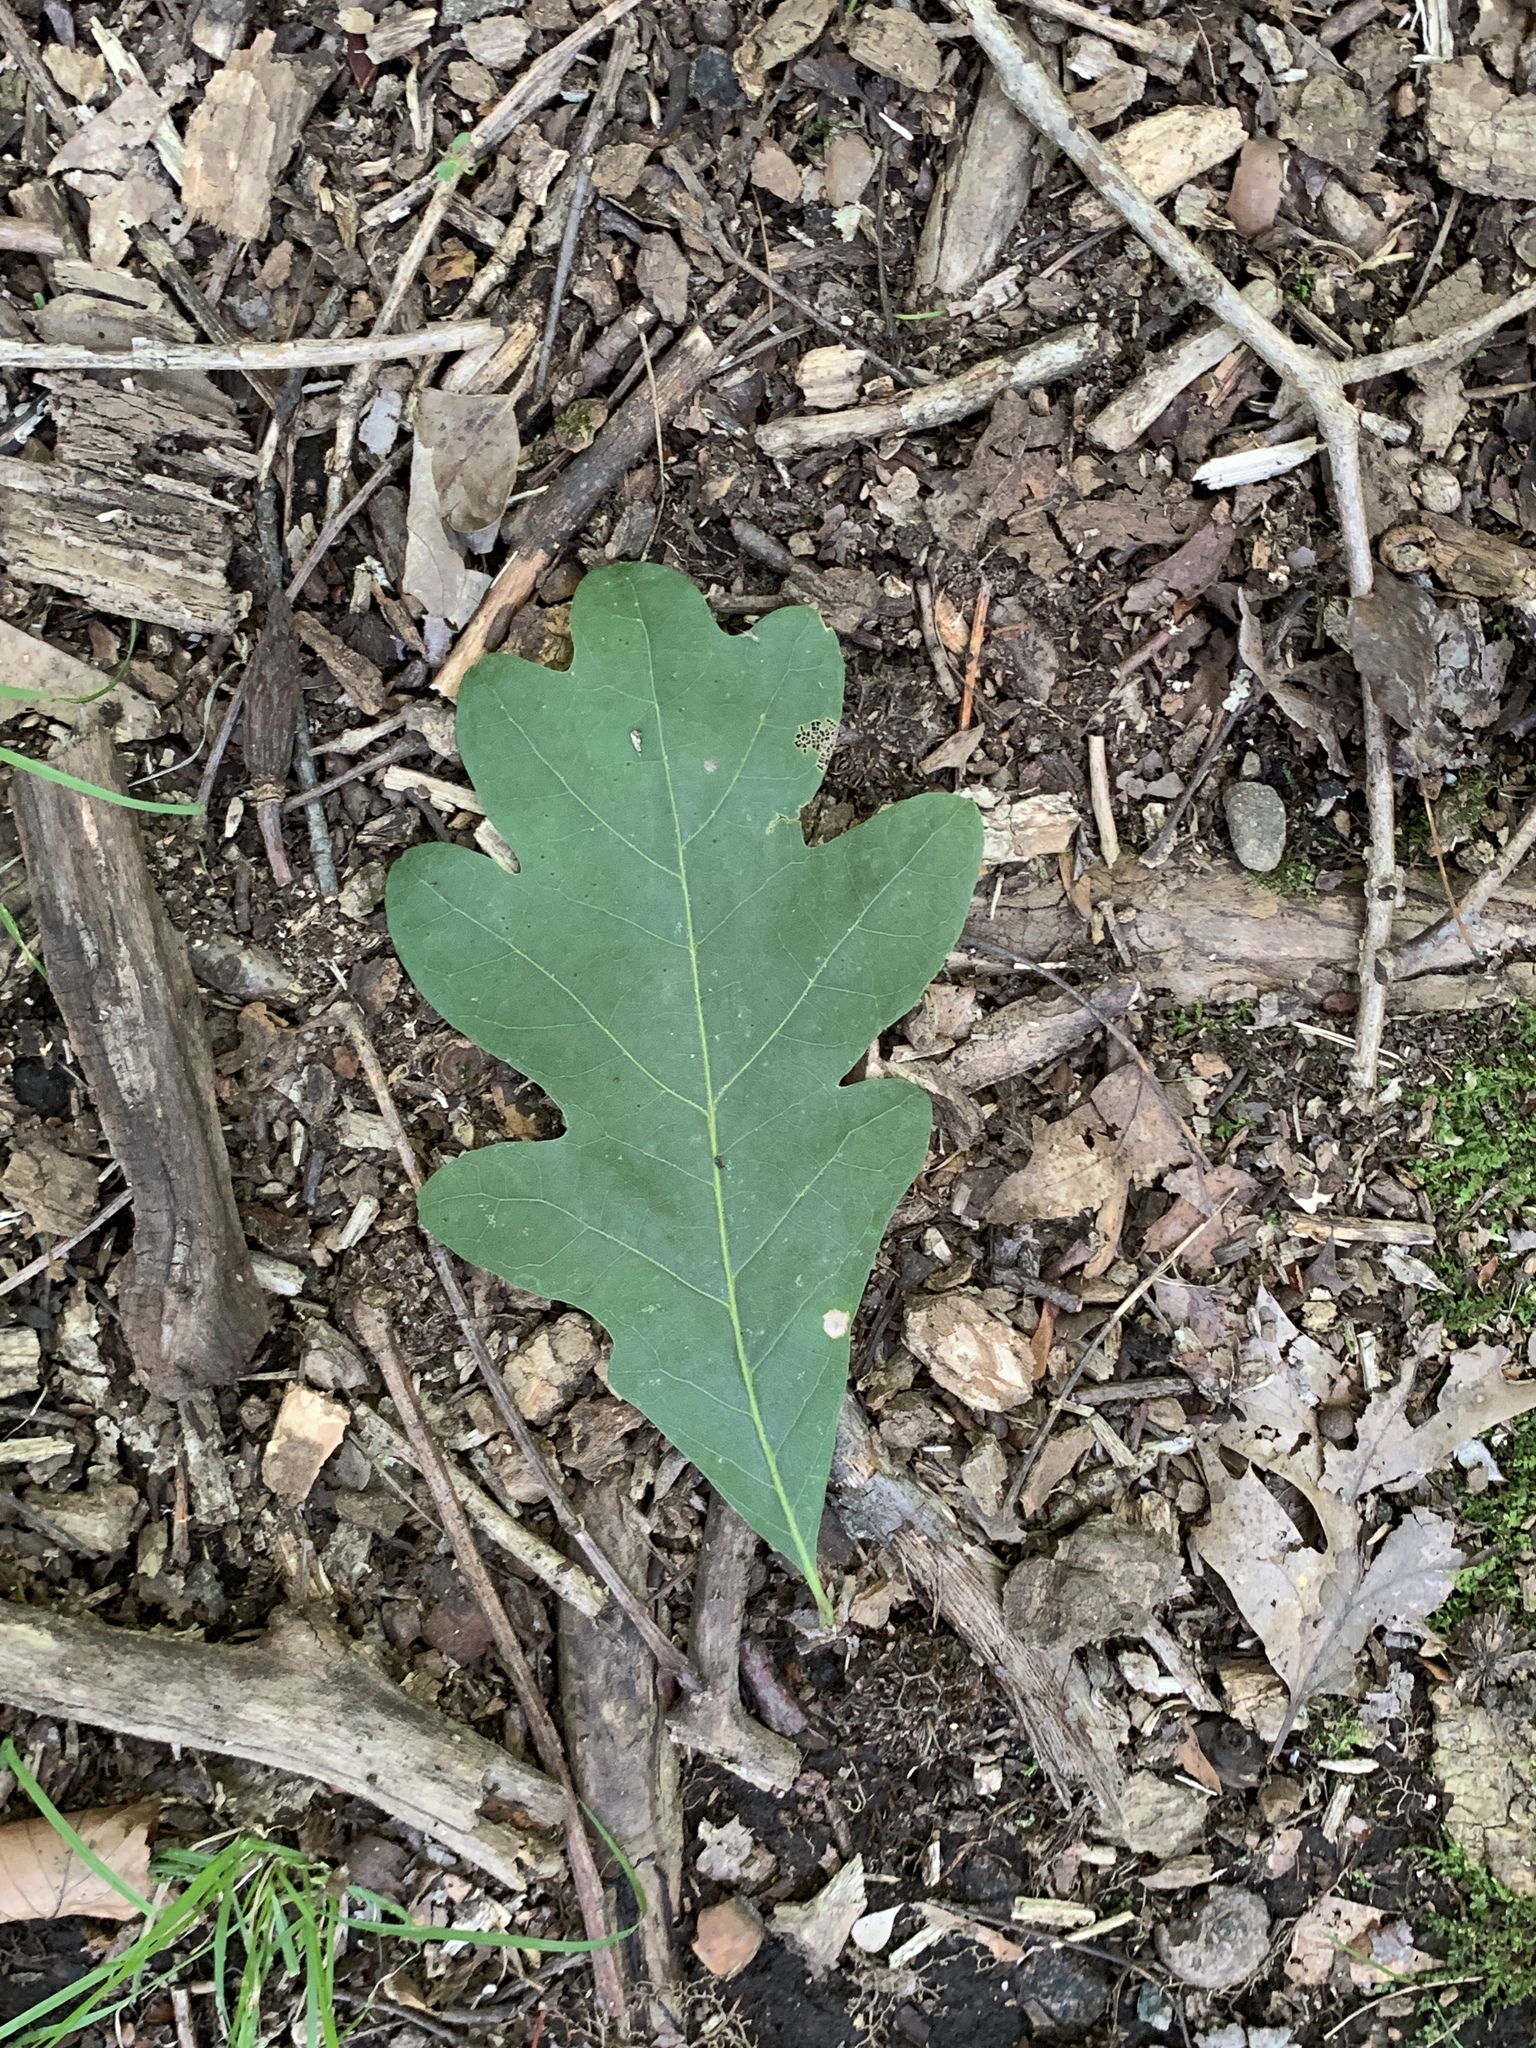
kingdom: Plantae
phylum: Tracheophyta
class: Magnoliopsida
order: Fagales
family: Fagaceae
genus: Quercus
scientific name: Quercus alba
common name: White oak
